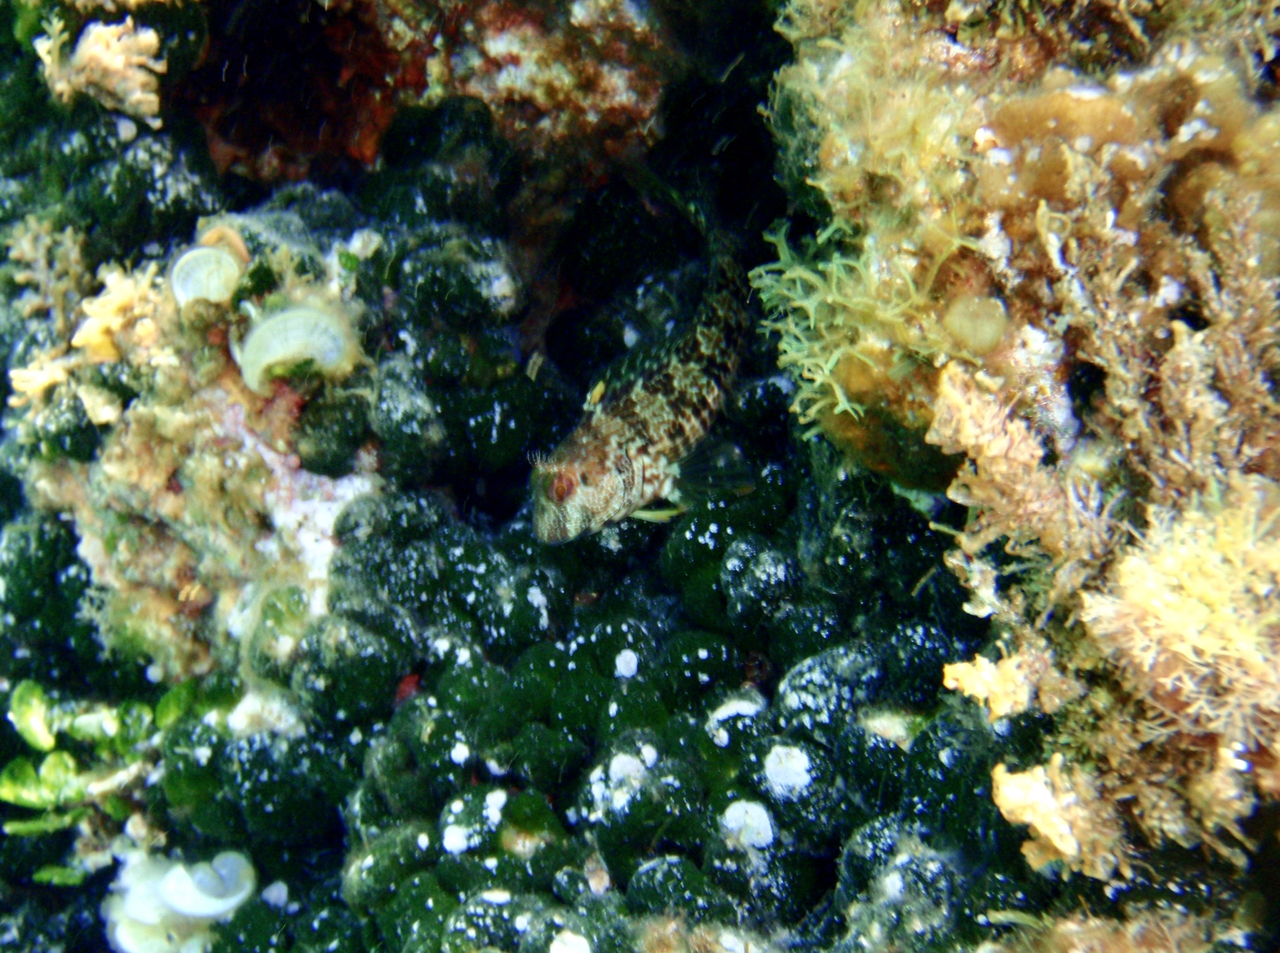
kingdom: Animalia
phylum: Chordata
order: Perciformes
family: Blenniidae
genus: Parablennius
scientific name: Parablennius pilicornis
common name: Ringneck blenny
